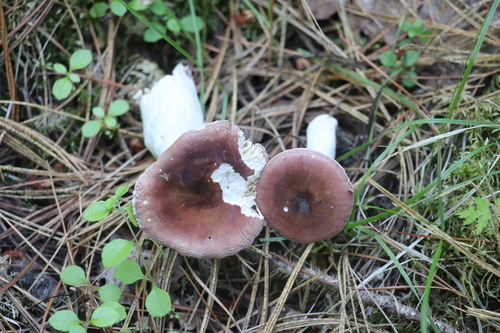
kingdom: Fungi
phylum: Basidiomycota
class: Agaricomycetes
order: Russulales
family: Russulaceae
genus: Russula
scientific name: Russula turci
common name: Pirate brittlegill
